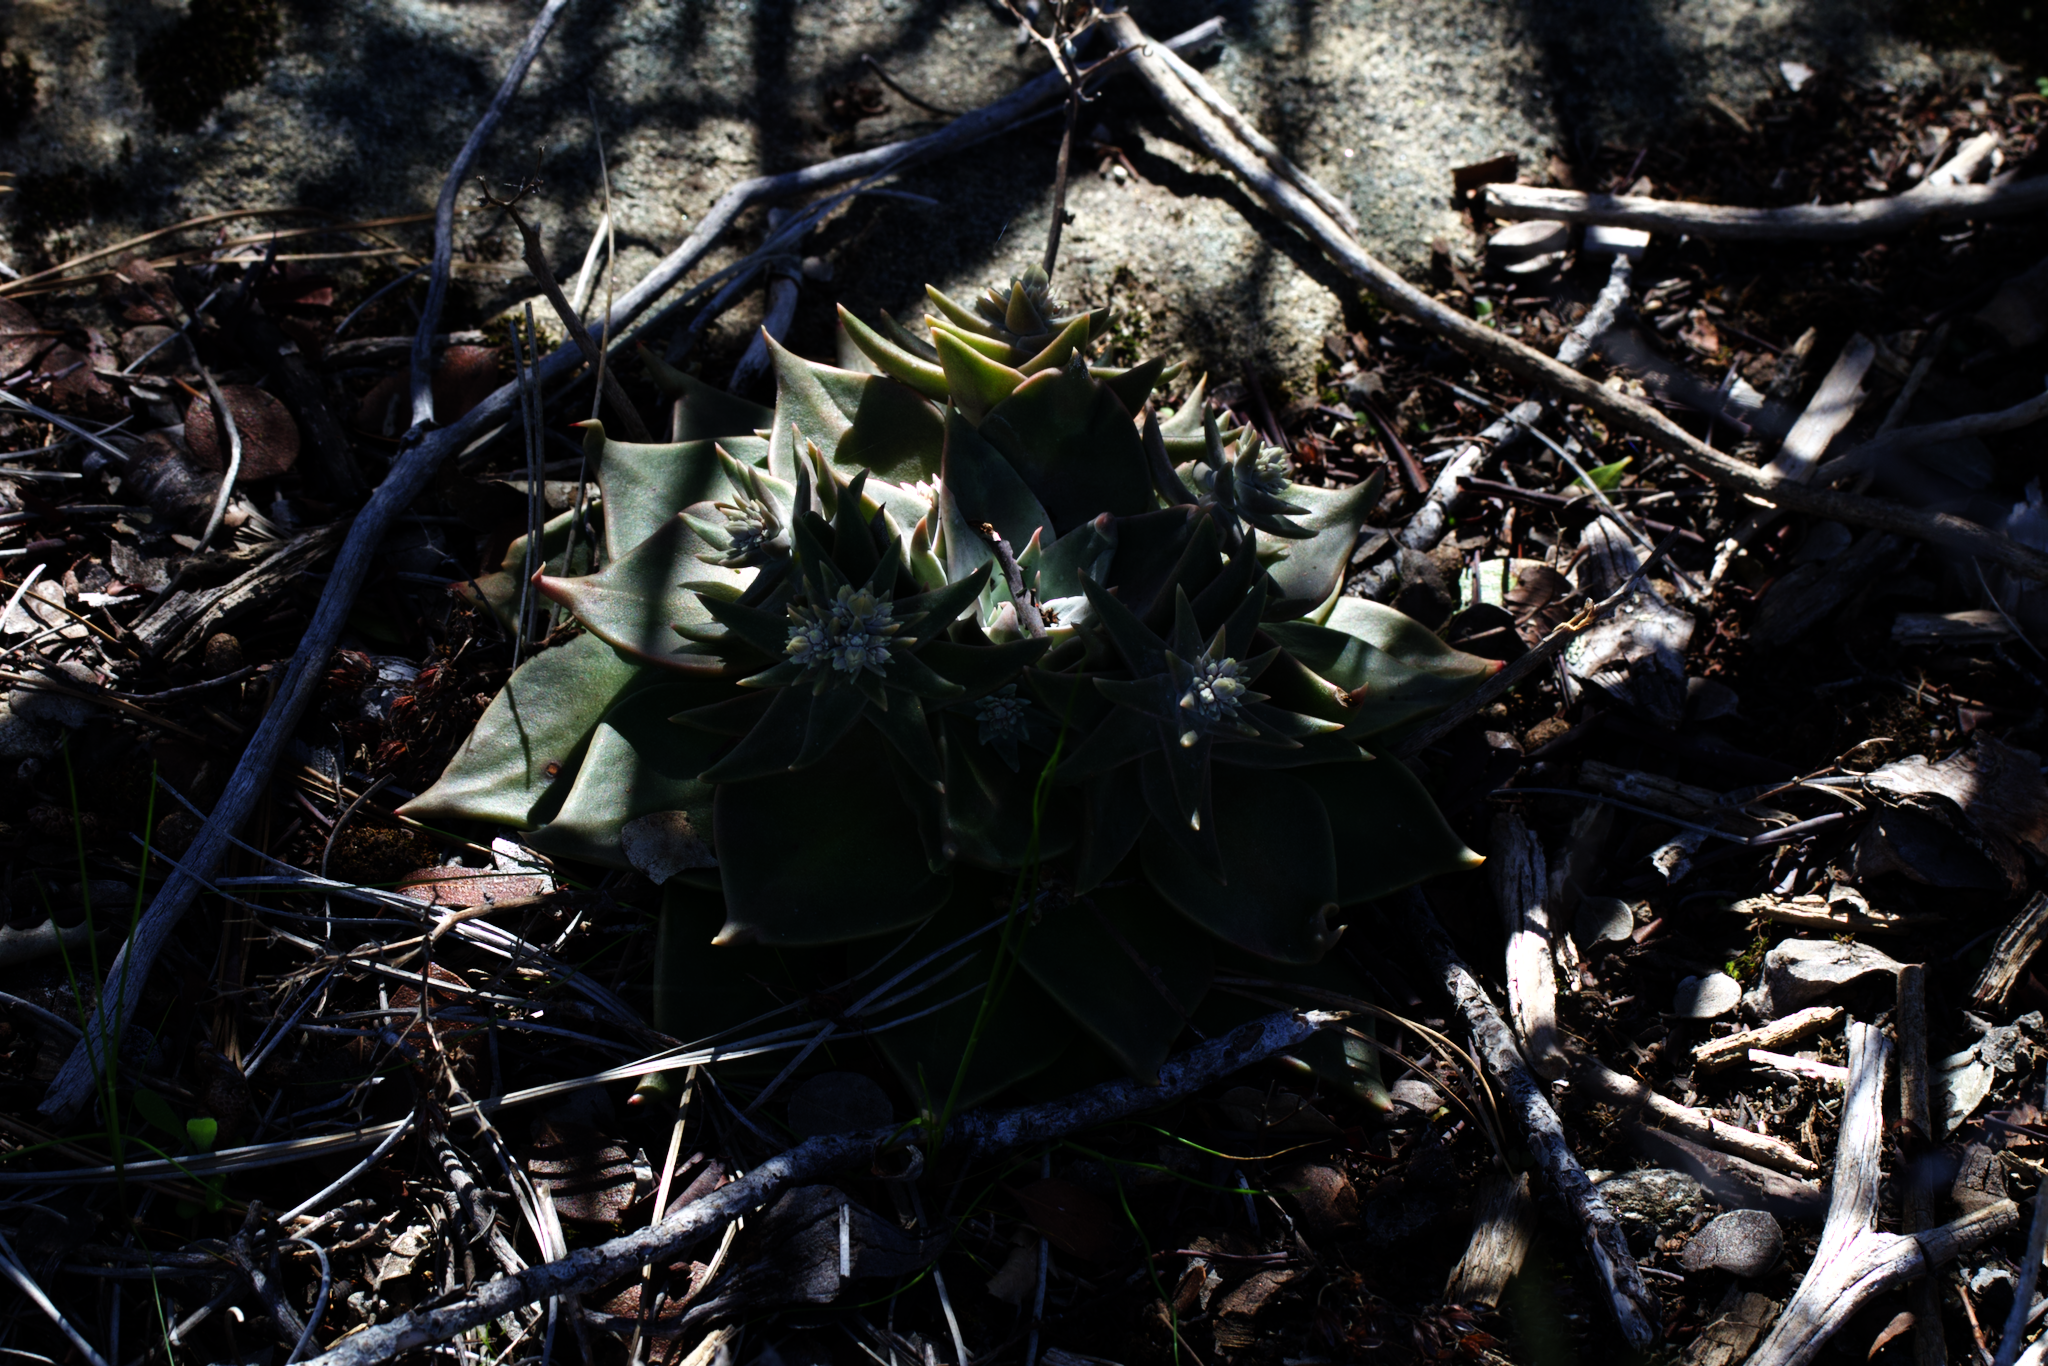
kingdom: Plantae
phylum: Tracheophyta
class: Magnoliopsida
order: Saxifragales
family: Crassulaceae
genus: Dudleya
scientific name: Dudleya cymosa
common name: Canyon dudleya
